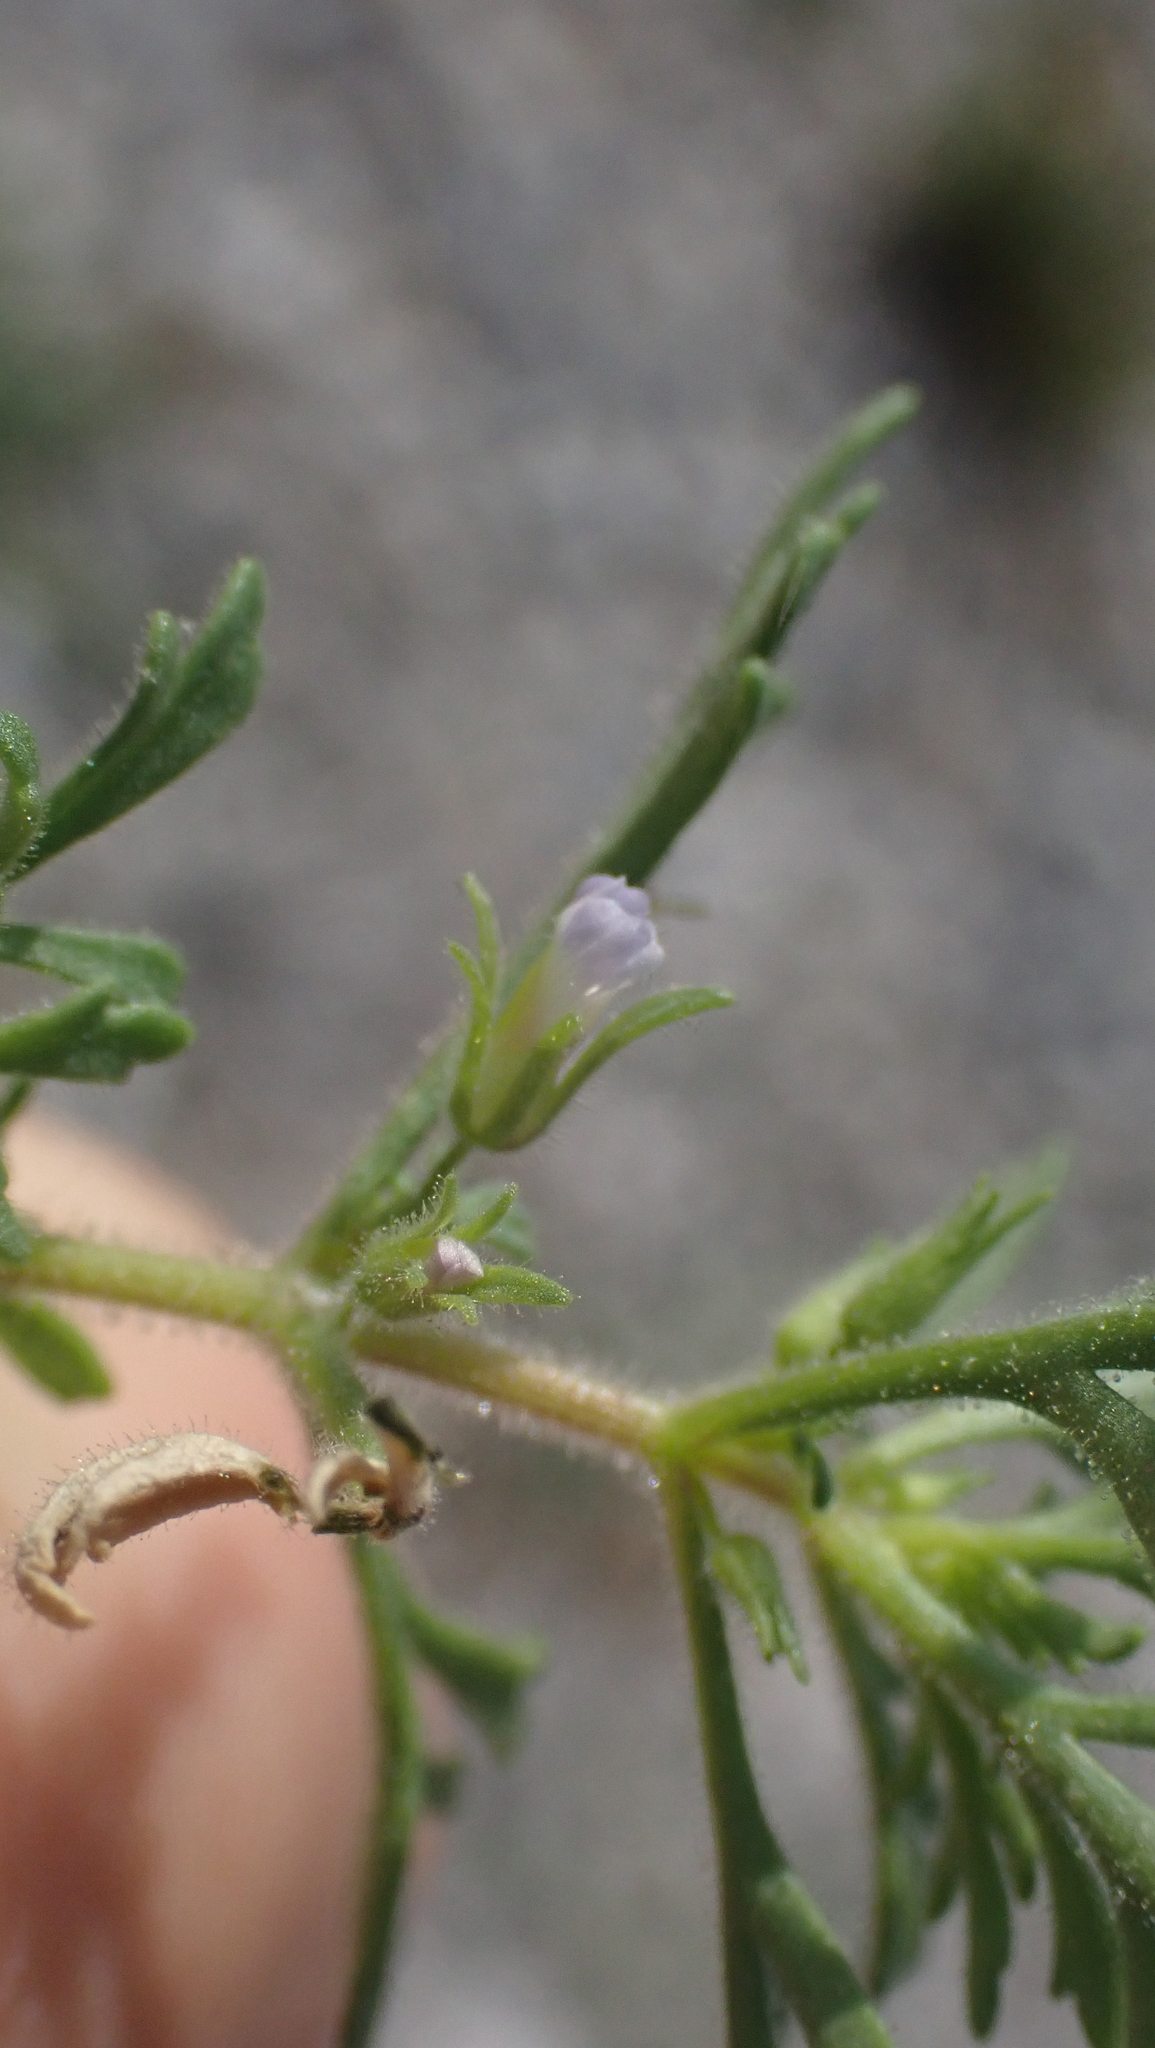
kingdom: Plantae
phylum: Tracheophyta
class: Magnoliopsida
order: Lamiales
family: Plantaginaceae
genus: Leucospora
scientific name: Leucospora multifida
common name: Narrow-leaf paleseed
